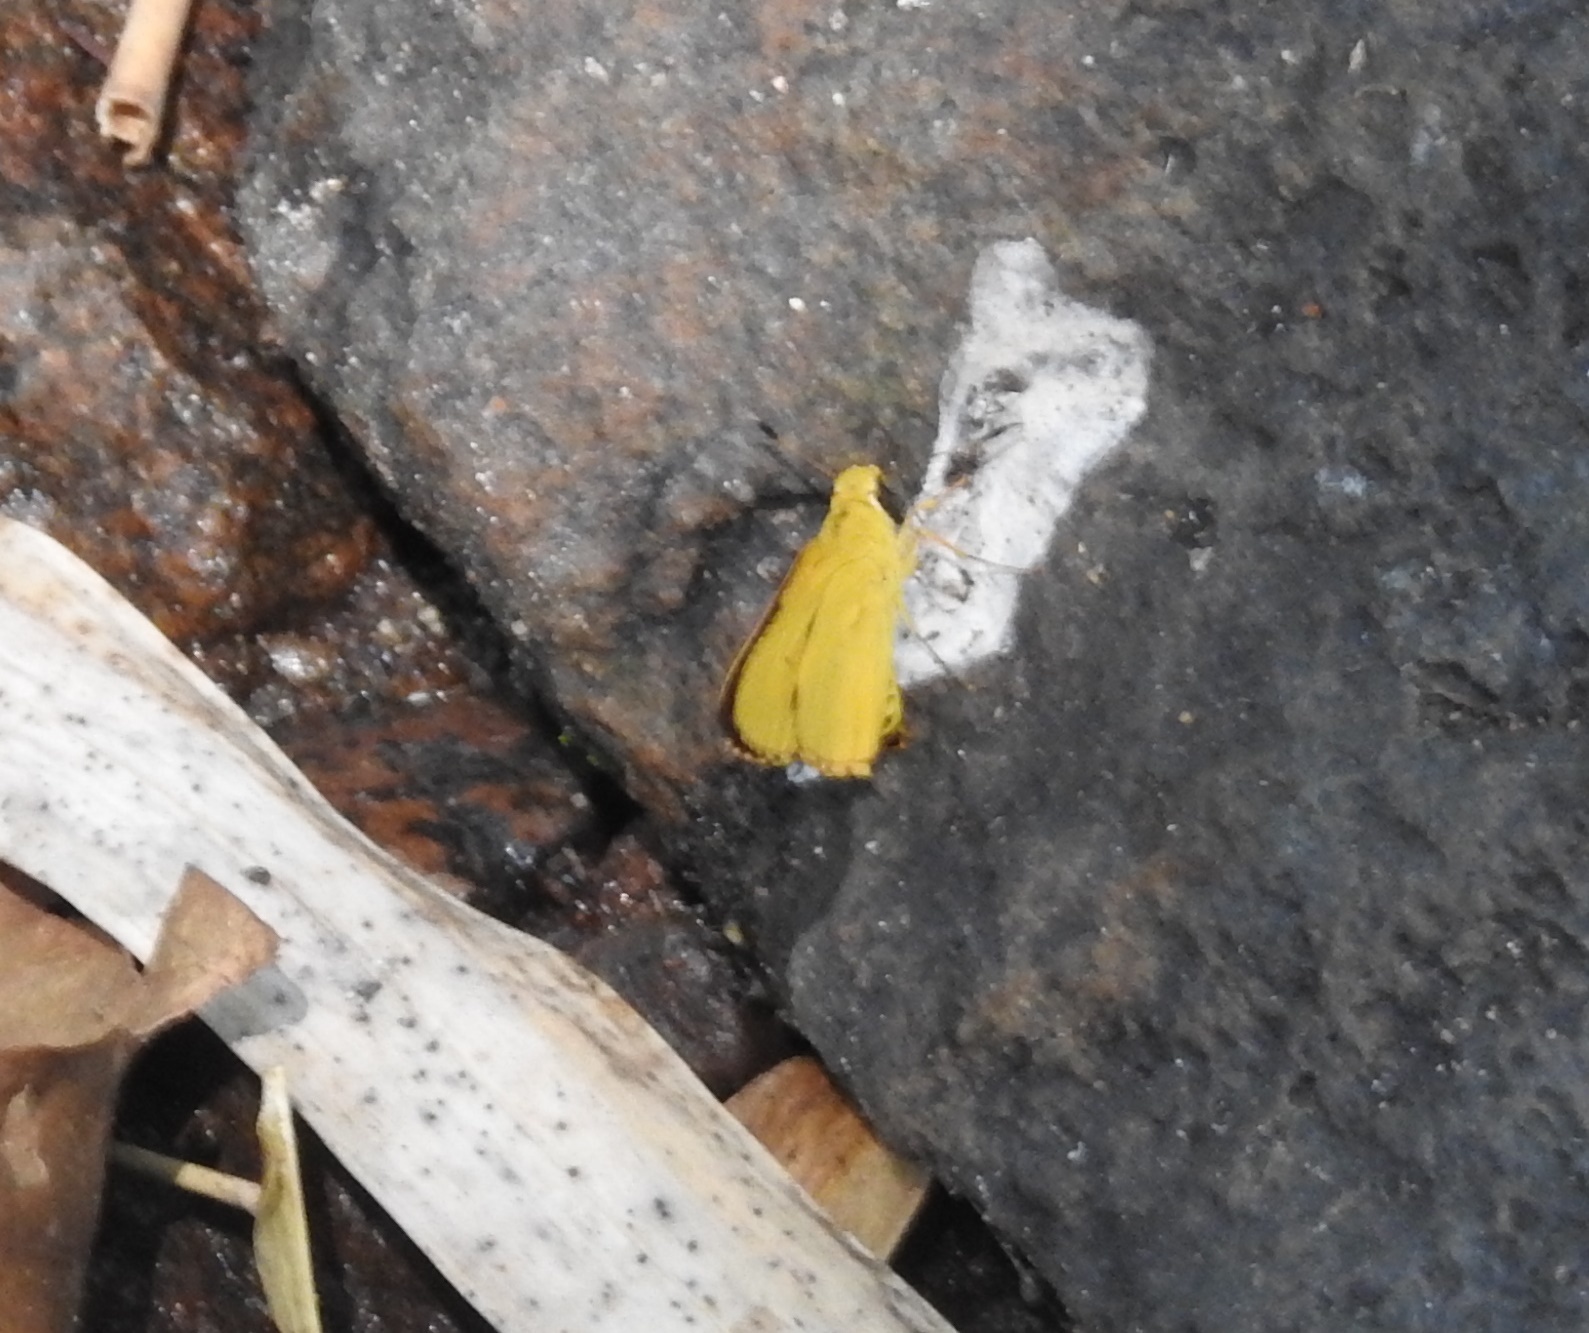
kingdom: Animalia
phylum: Arthropoda
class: Insecta
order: Lepidoptera
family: Hesperiidae
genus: Cupitha
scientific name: Cupitha purreea
